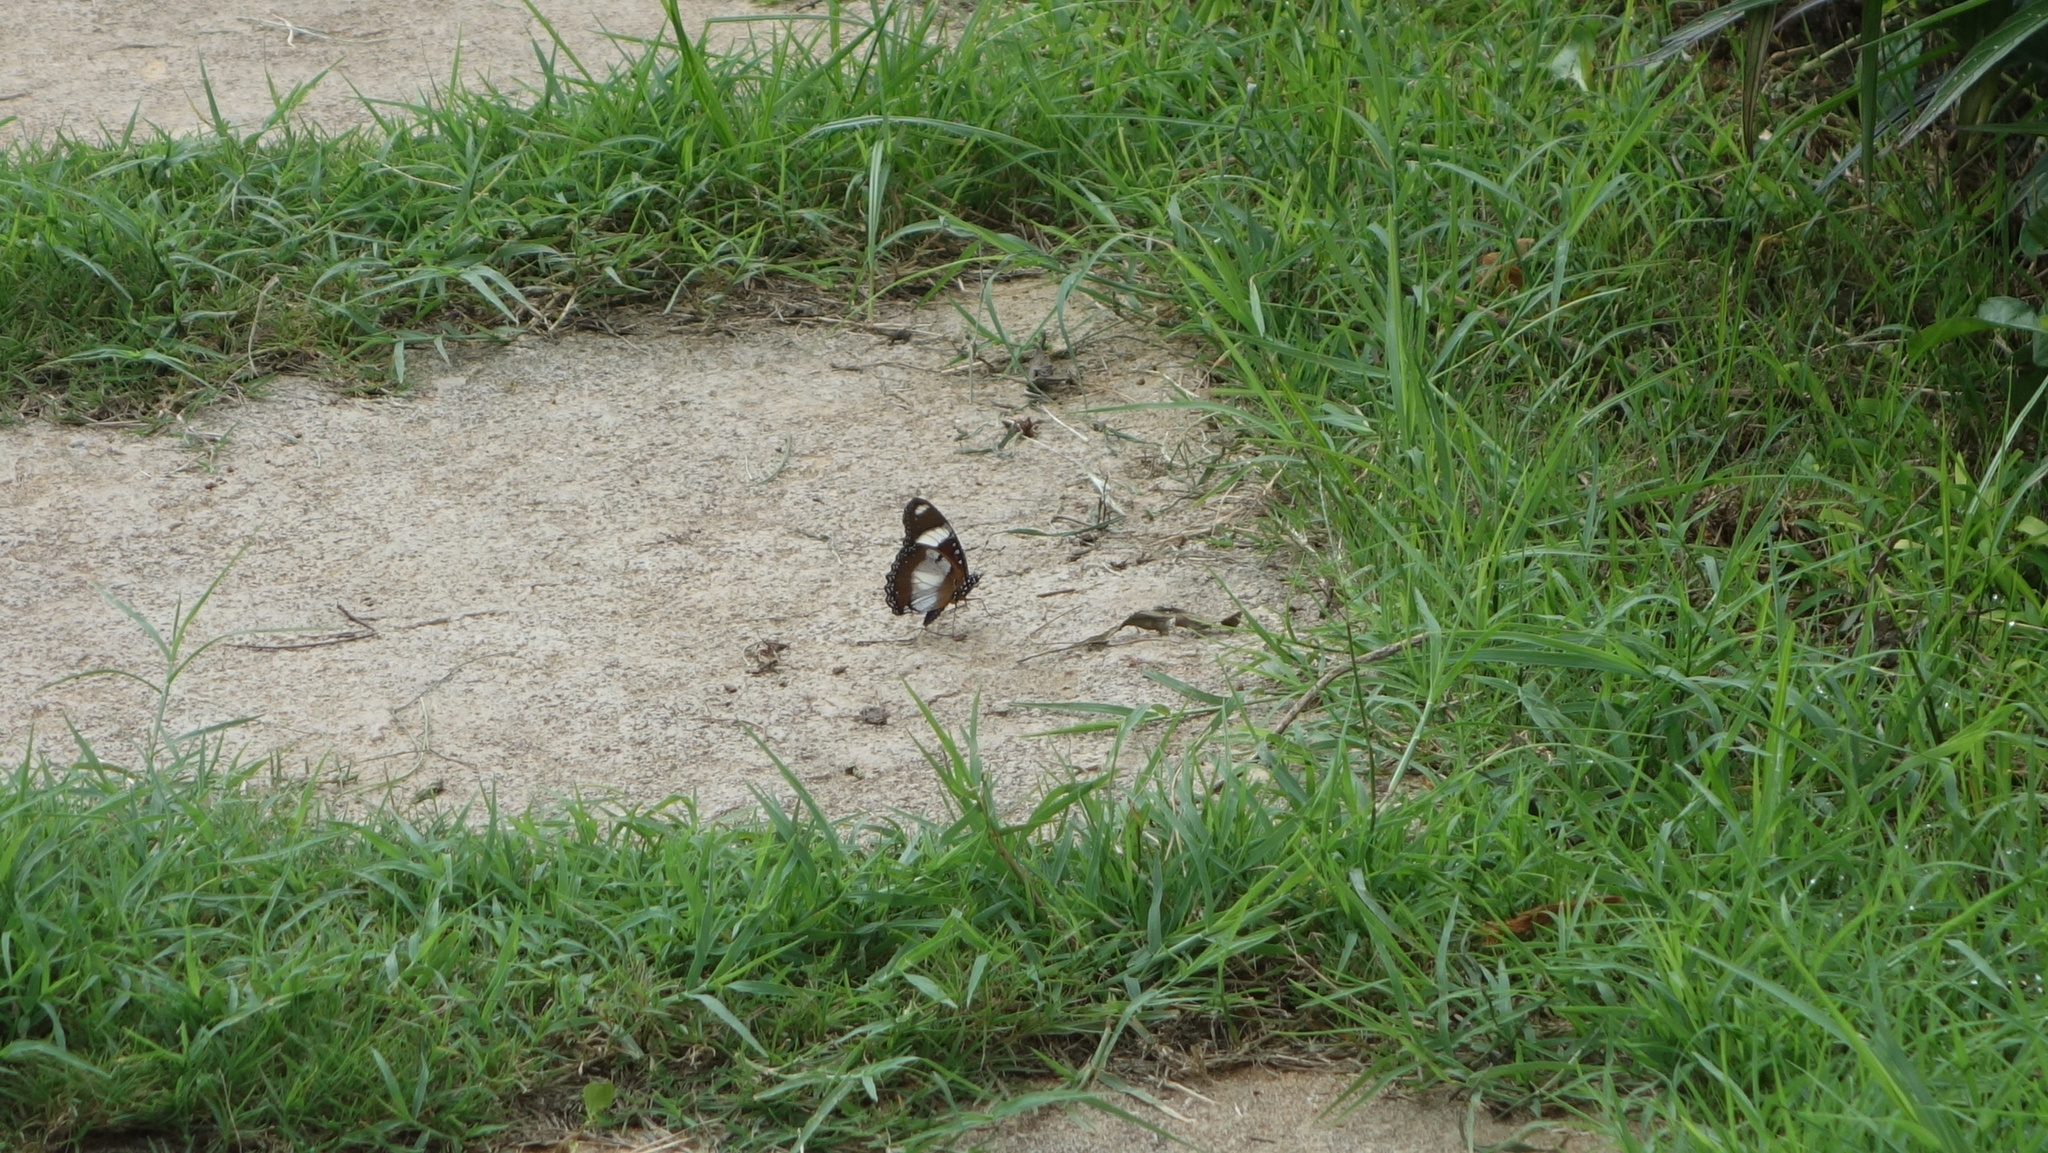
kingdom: Animalia
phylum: Arthropoda
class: Insecta
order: Lepidoptera
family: Nymphalidae
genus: Hypolimnas
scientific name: Hypolimnas misippus
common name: False plain tiger
